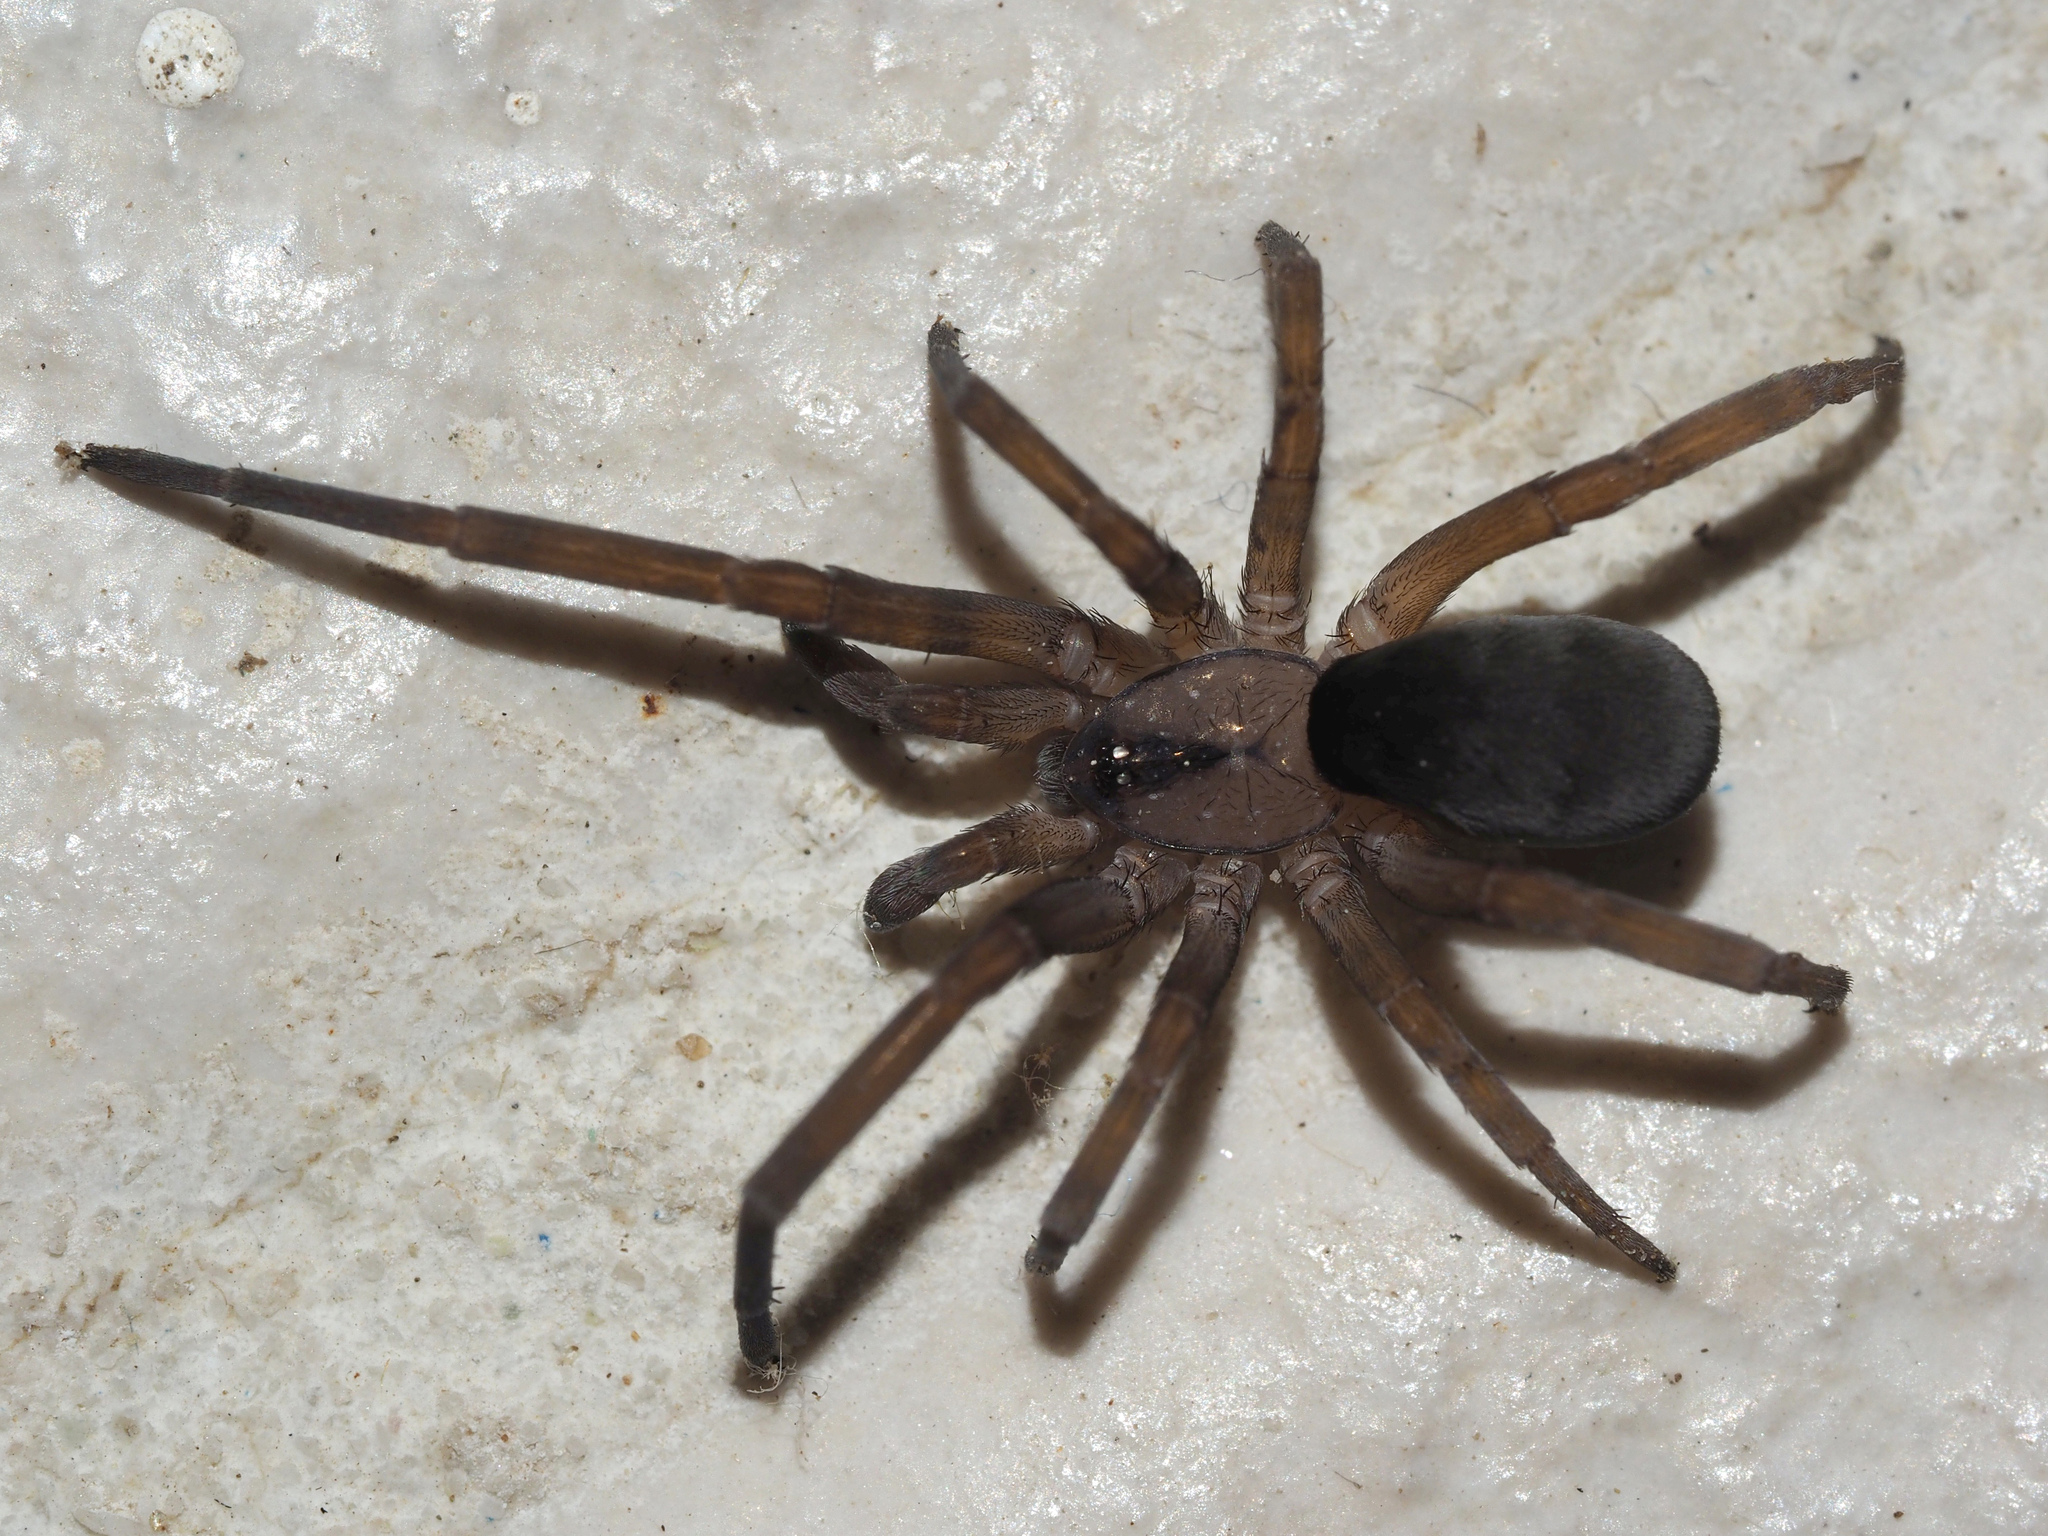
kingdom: Animalia
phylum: Arthropoda
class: Arachnida
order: Araneae
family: Filistatidae
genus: Filistata
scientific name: Filistata insidiatrix
